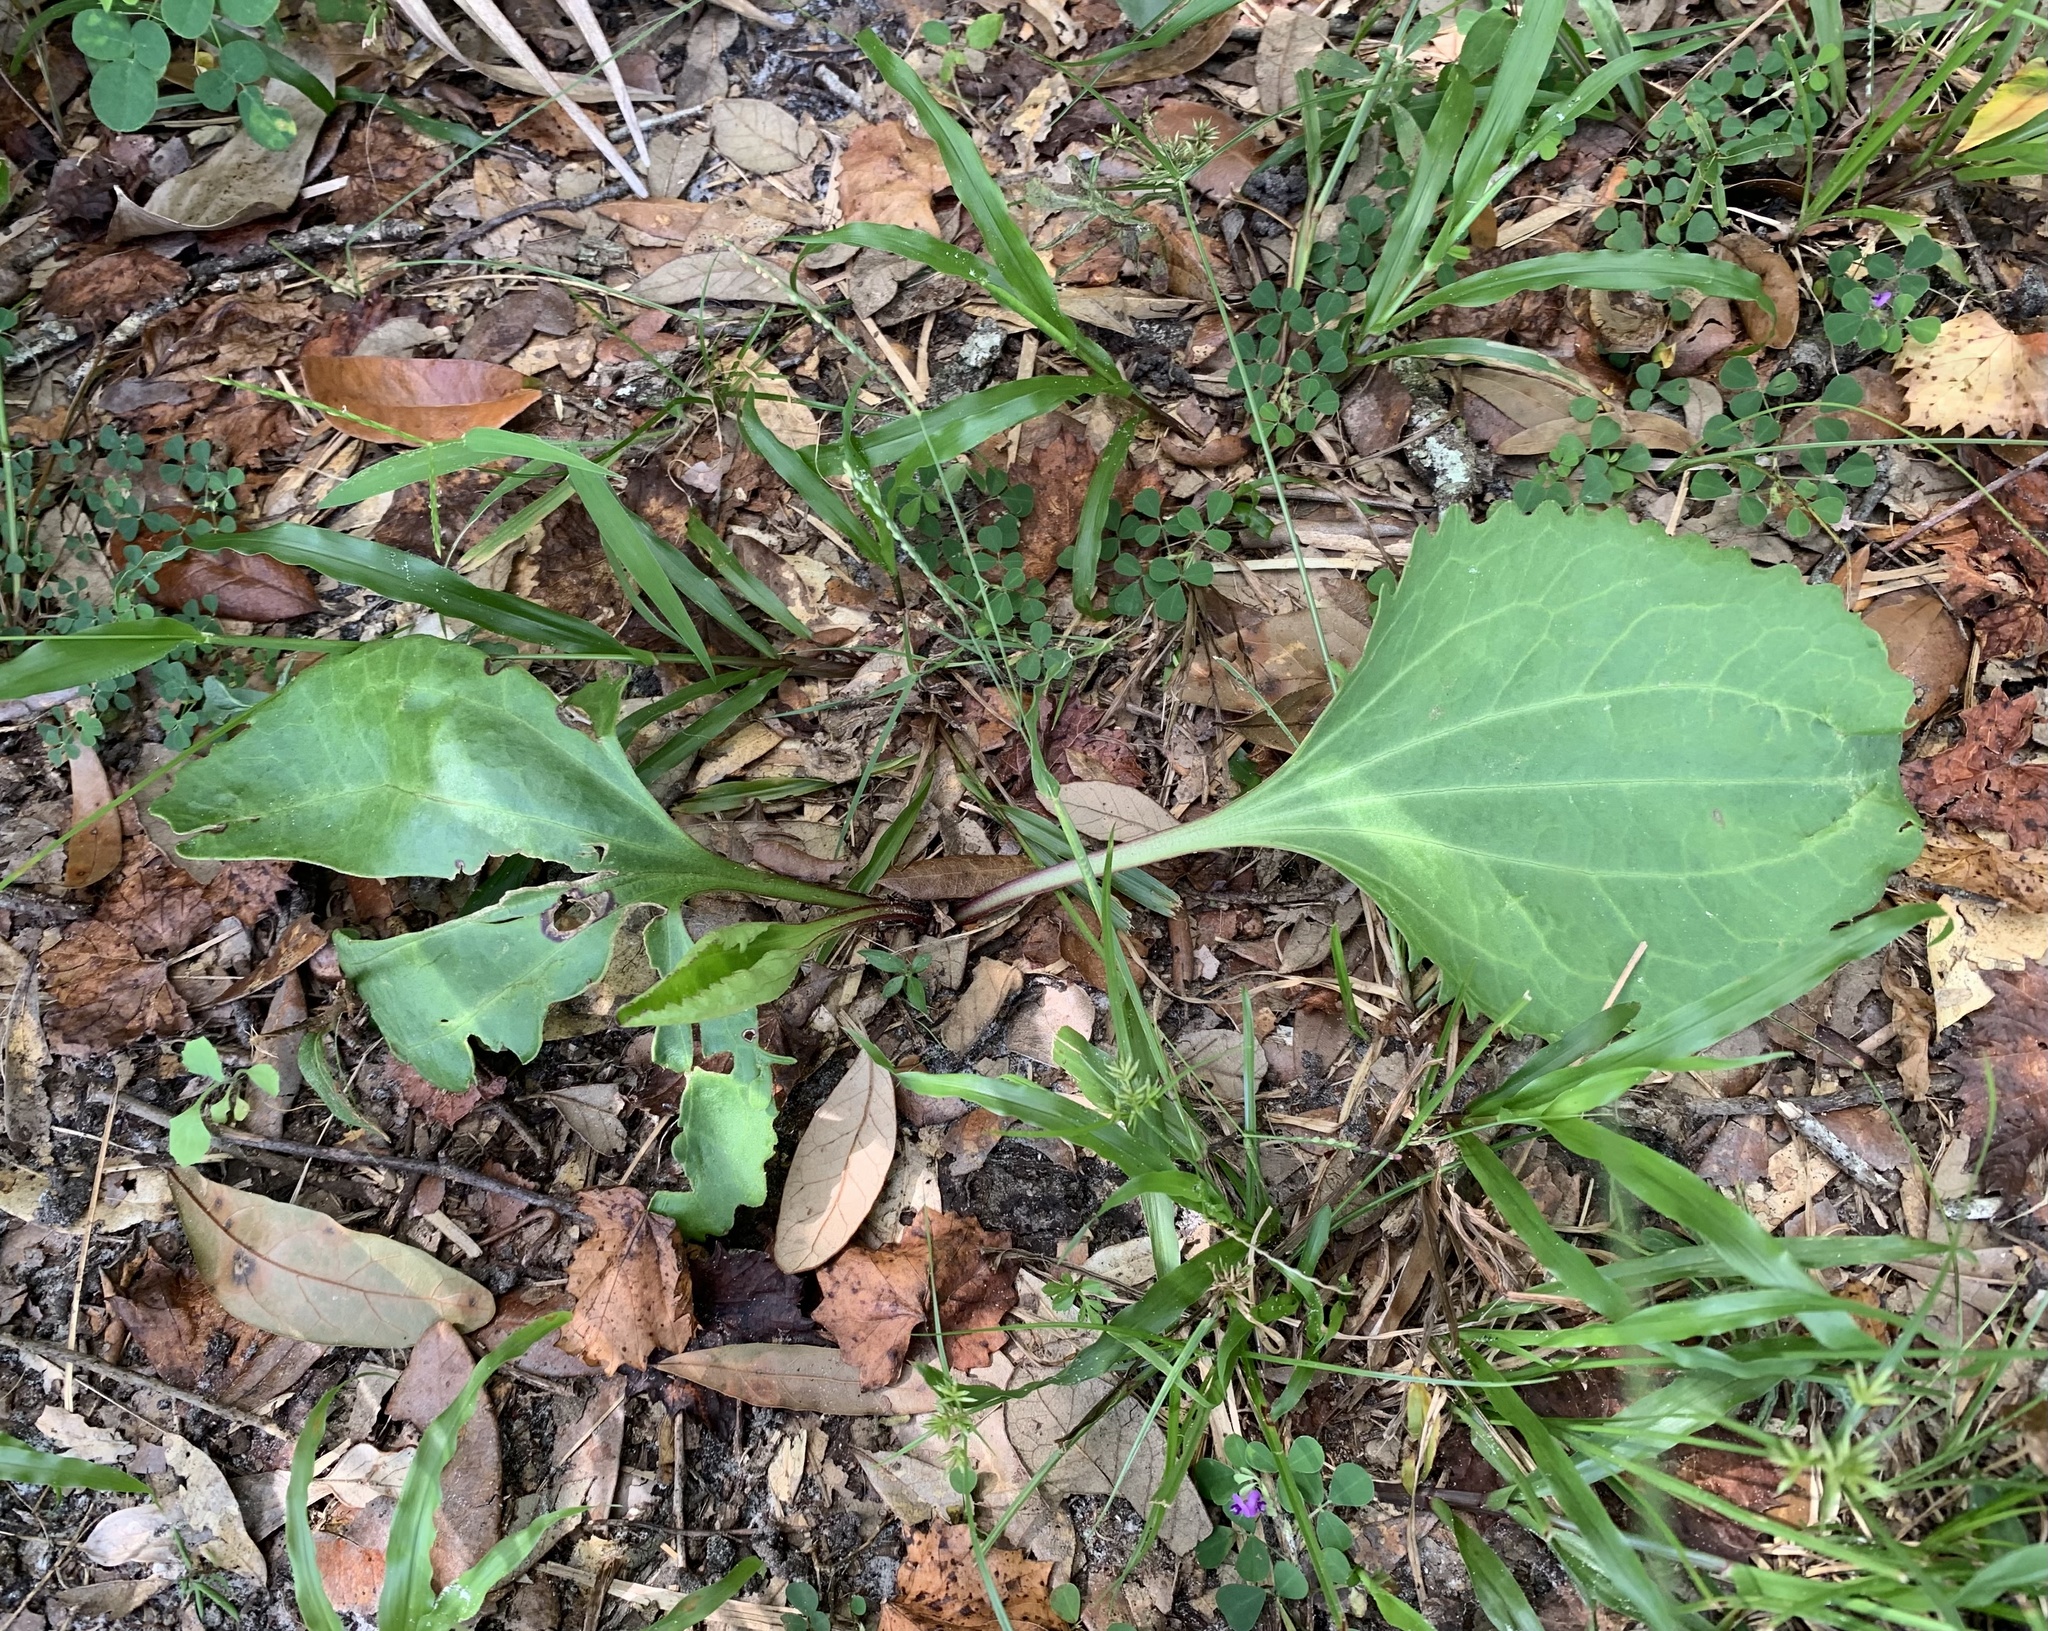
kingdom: Plantae
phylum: Tracheophyta
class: Magnoliopsida
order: Asterales
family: Asteraceae
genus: Arnoglossum
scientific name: Arnoglossum floridanum
